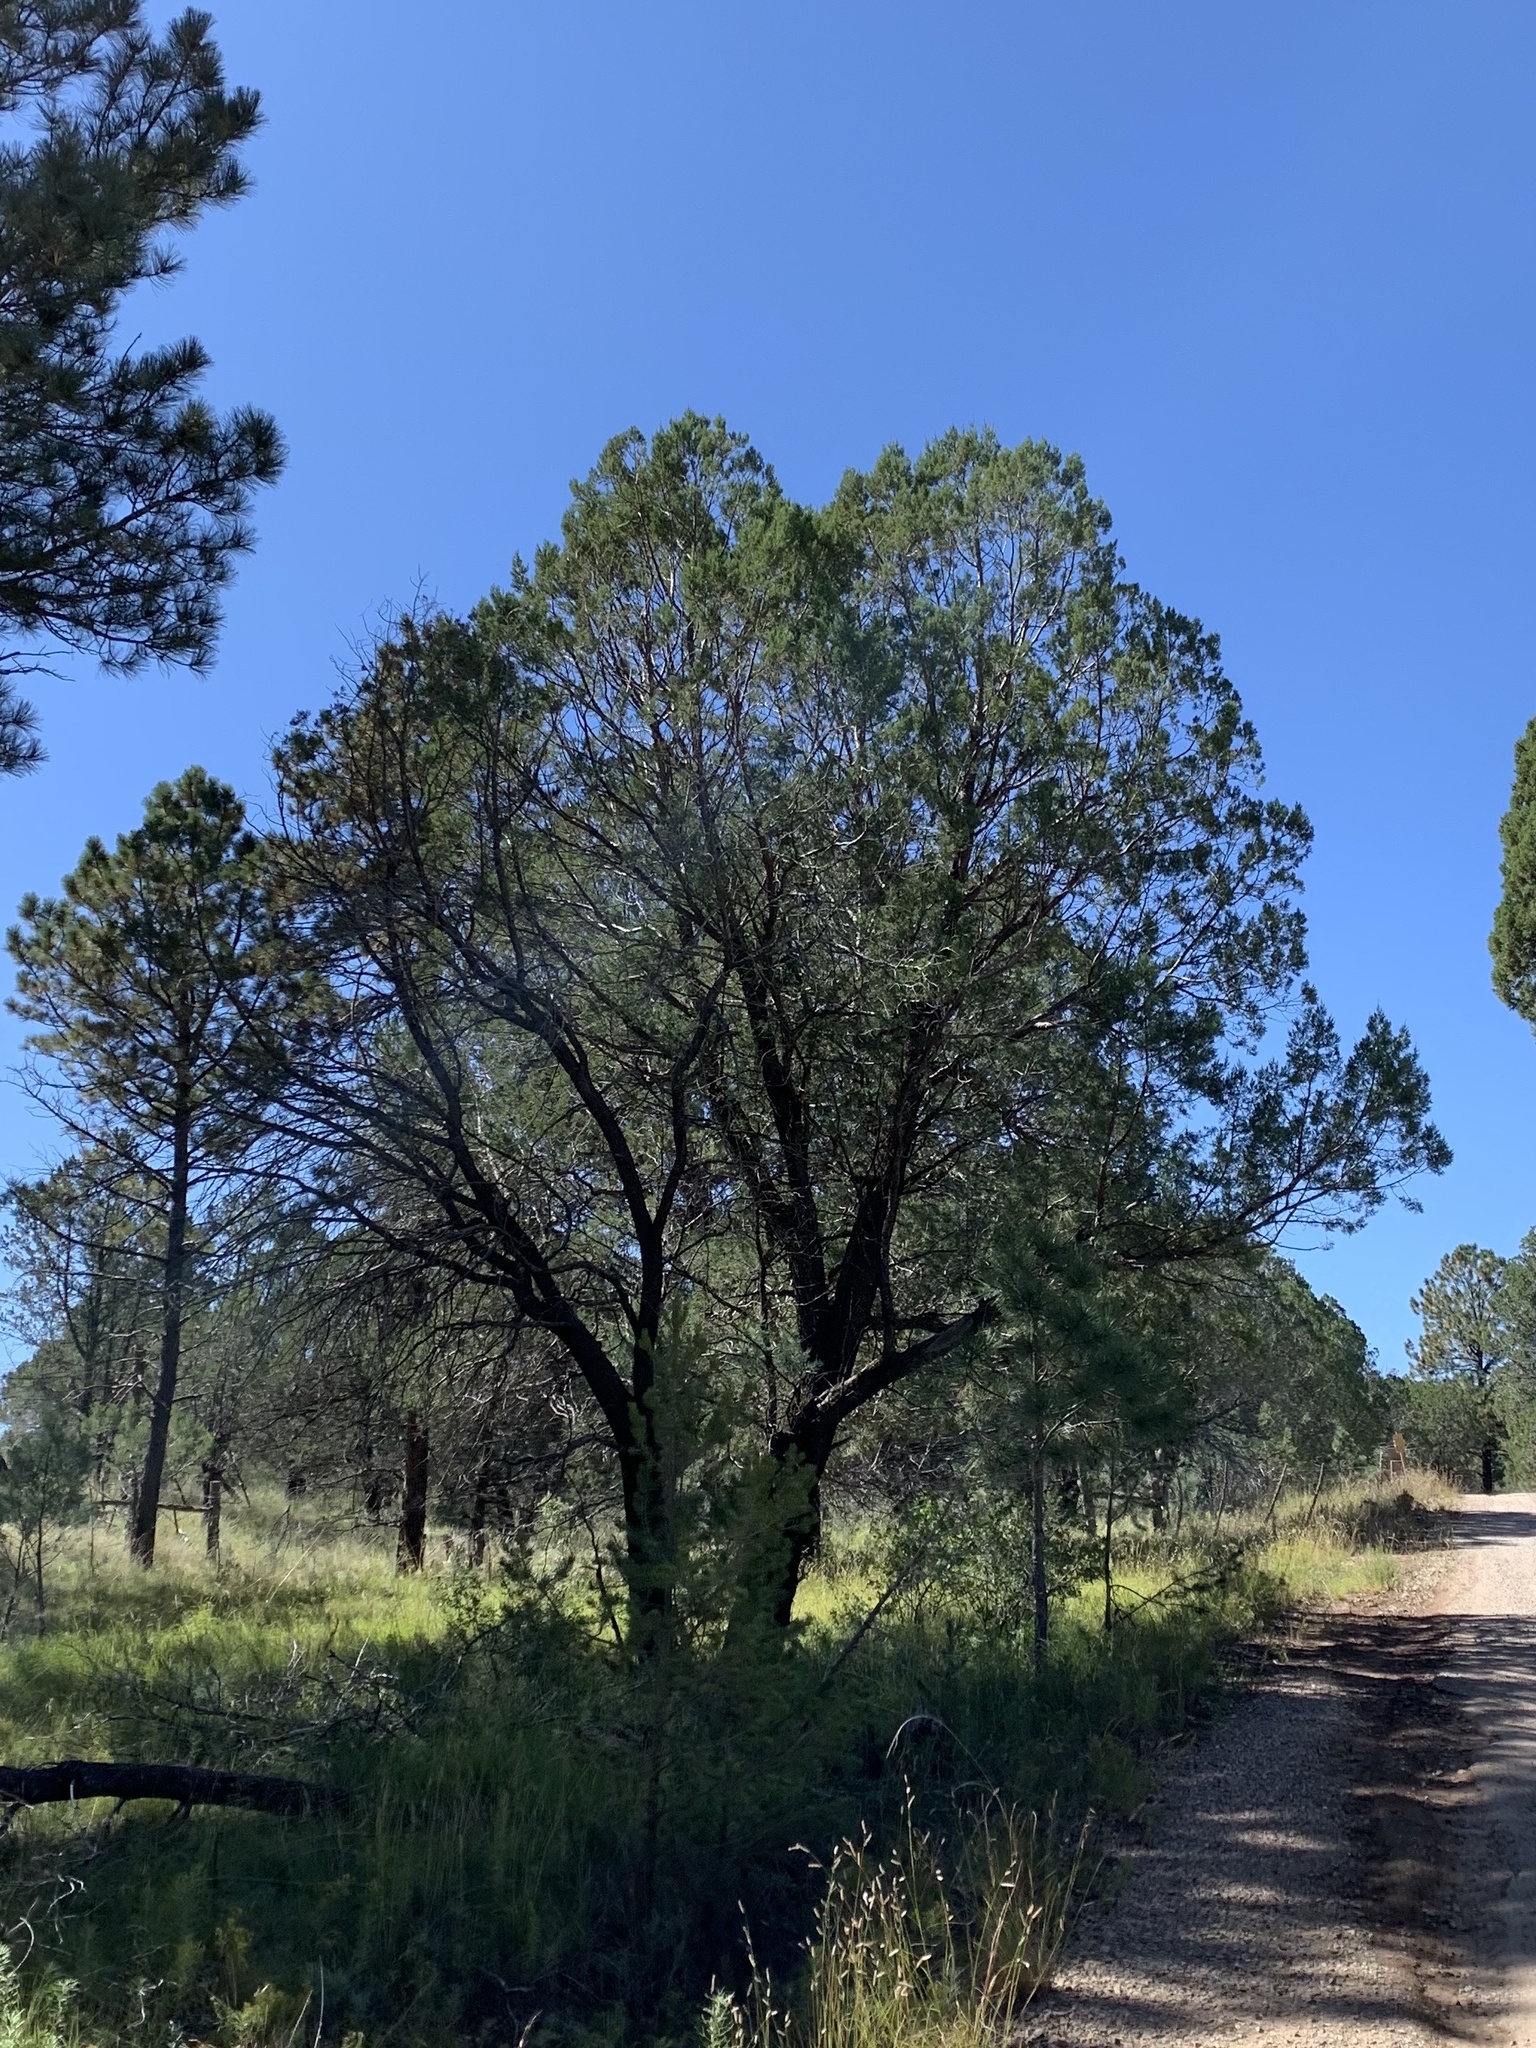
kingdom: Plantae
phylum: Tracheophyta
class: Pinopsida
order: Pinales
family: Cupressaceae
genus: Juniperus
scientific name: Juniperus deppeana
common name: Alligator juniper
